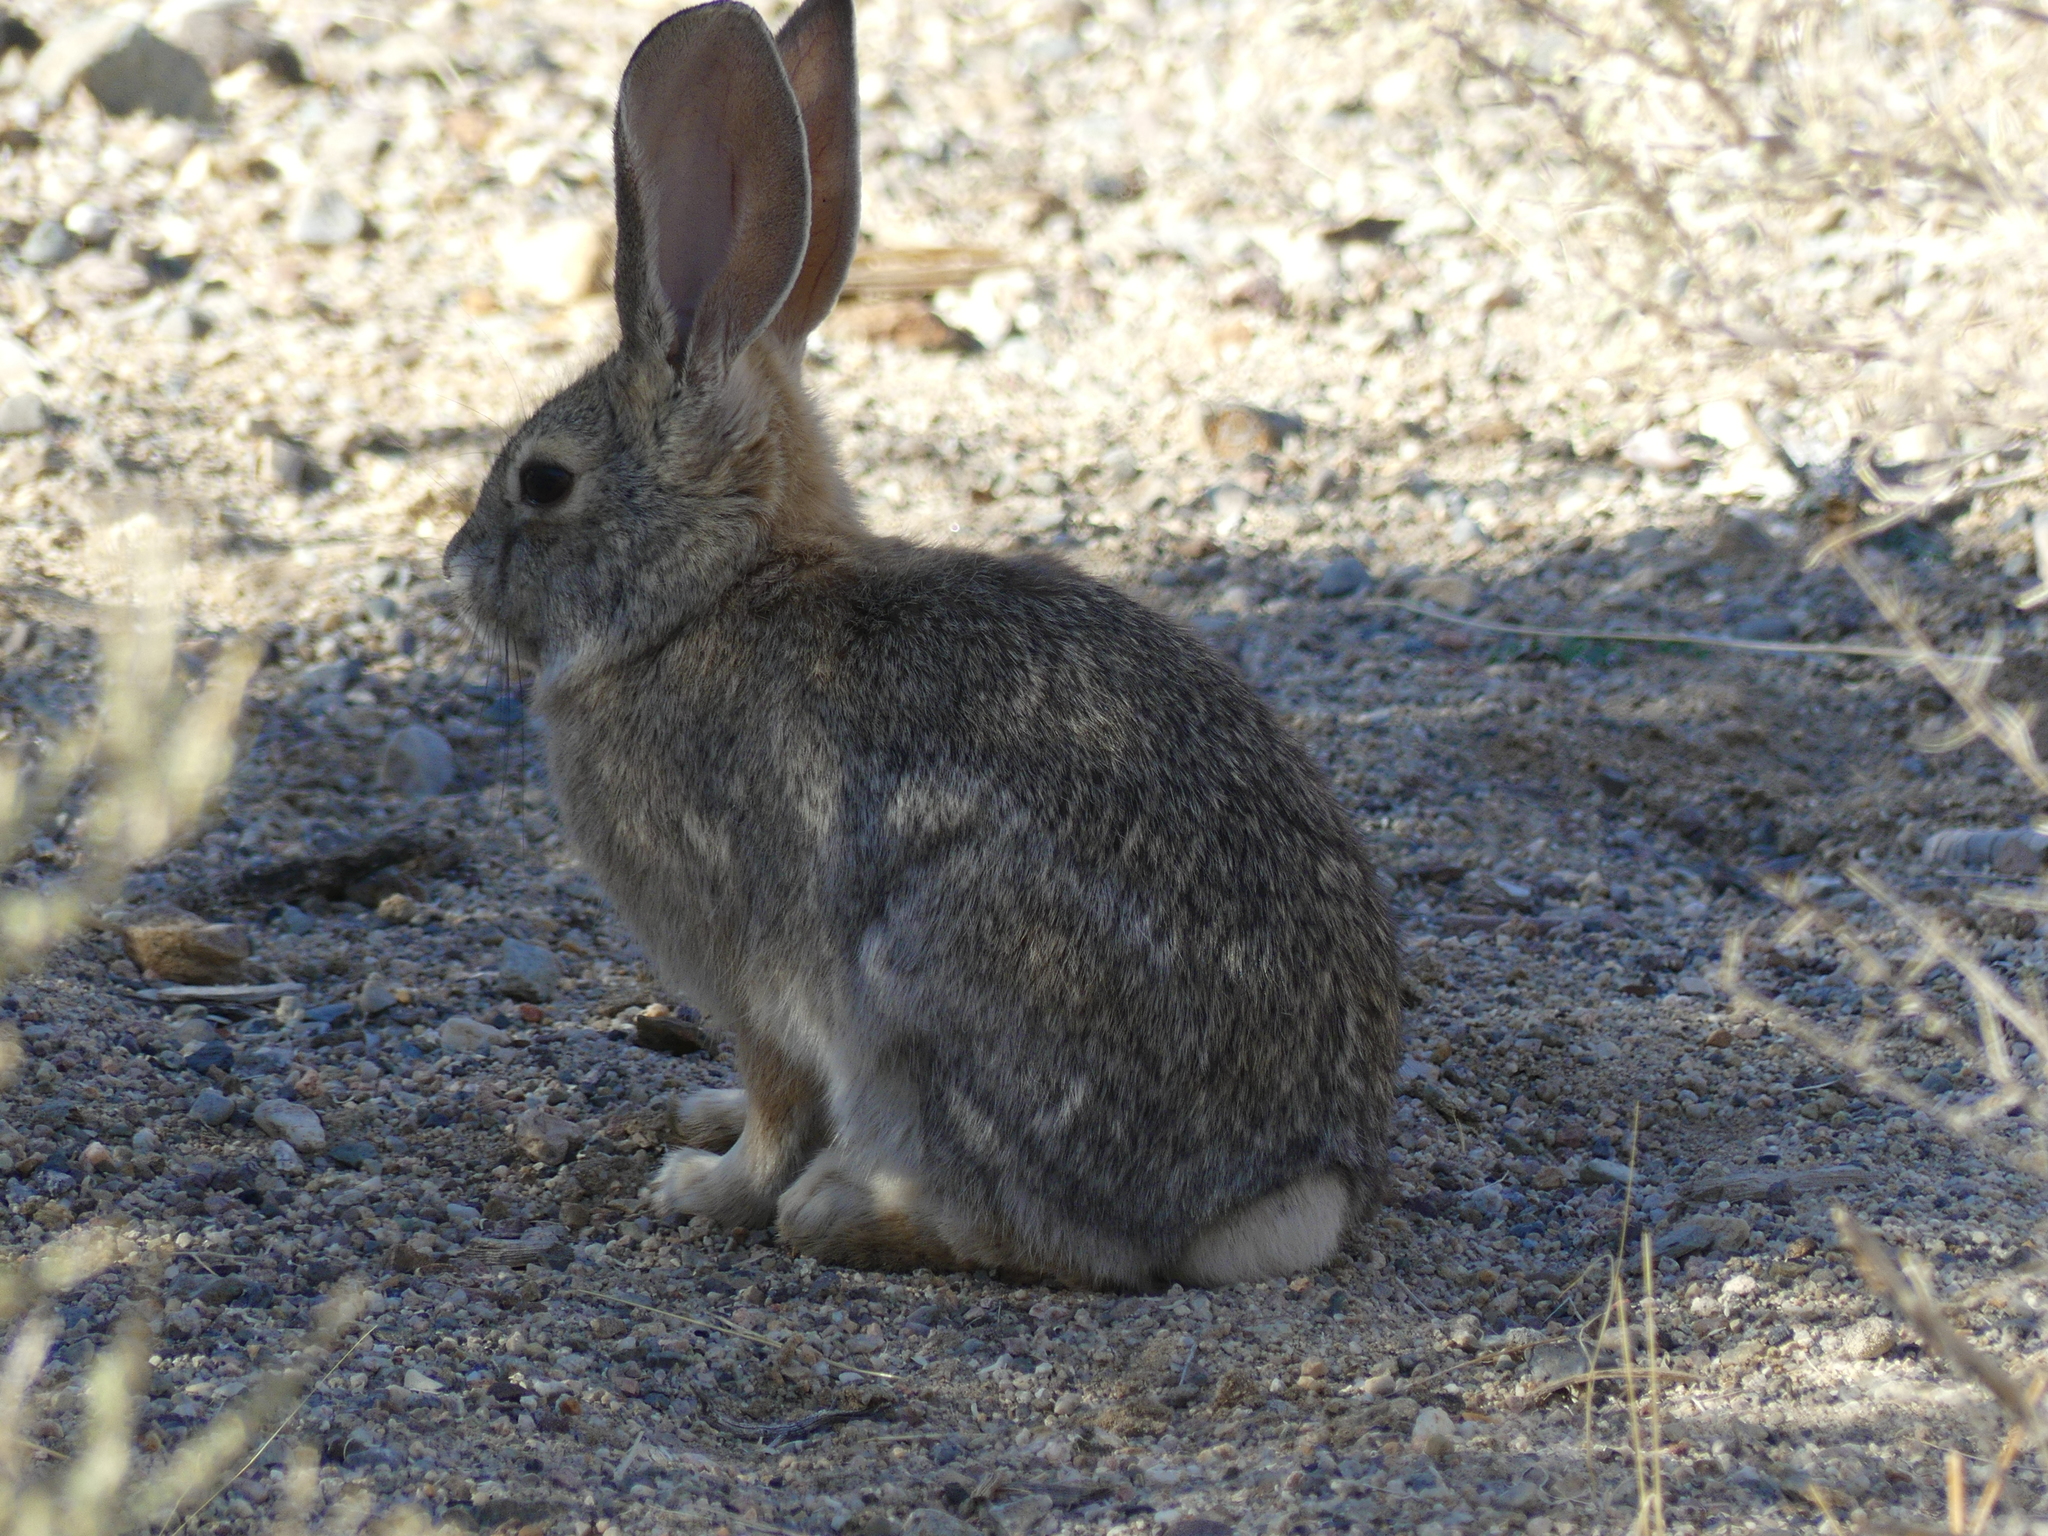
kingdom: Animalia
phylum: Chordata
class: Mammalia
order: Lagomorpha
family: Leporidae
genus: Sylvilagus
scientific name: Sylvilagus audubonii
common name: Desert cottontail
